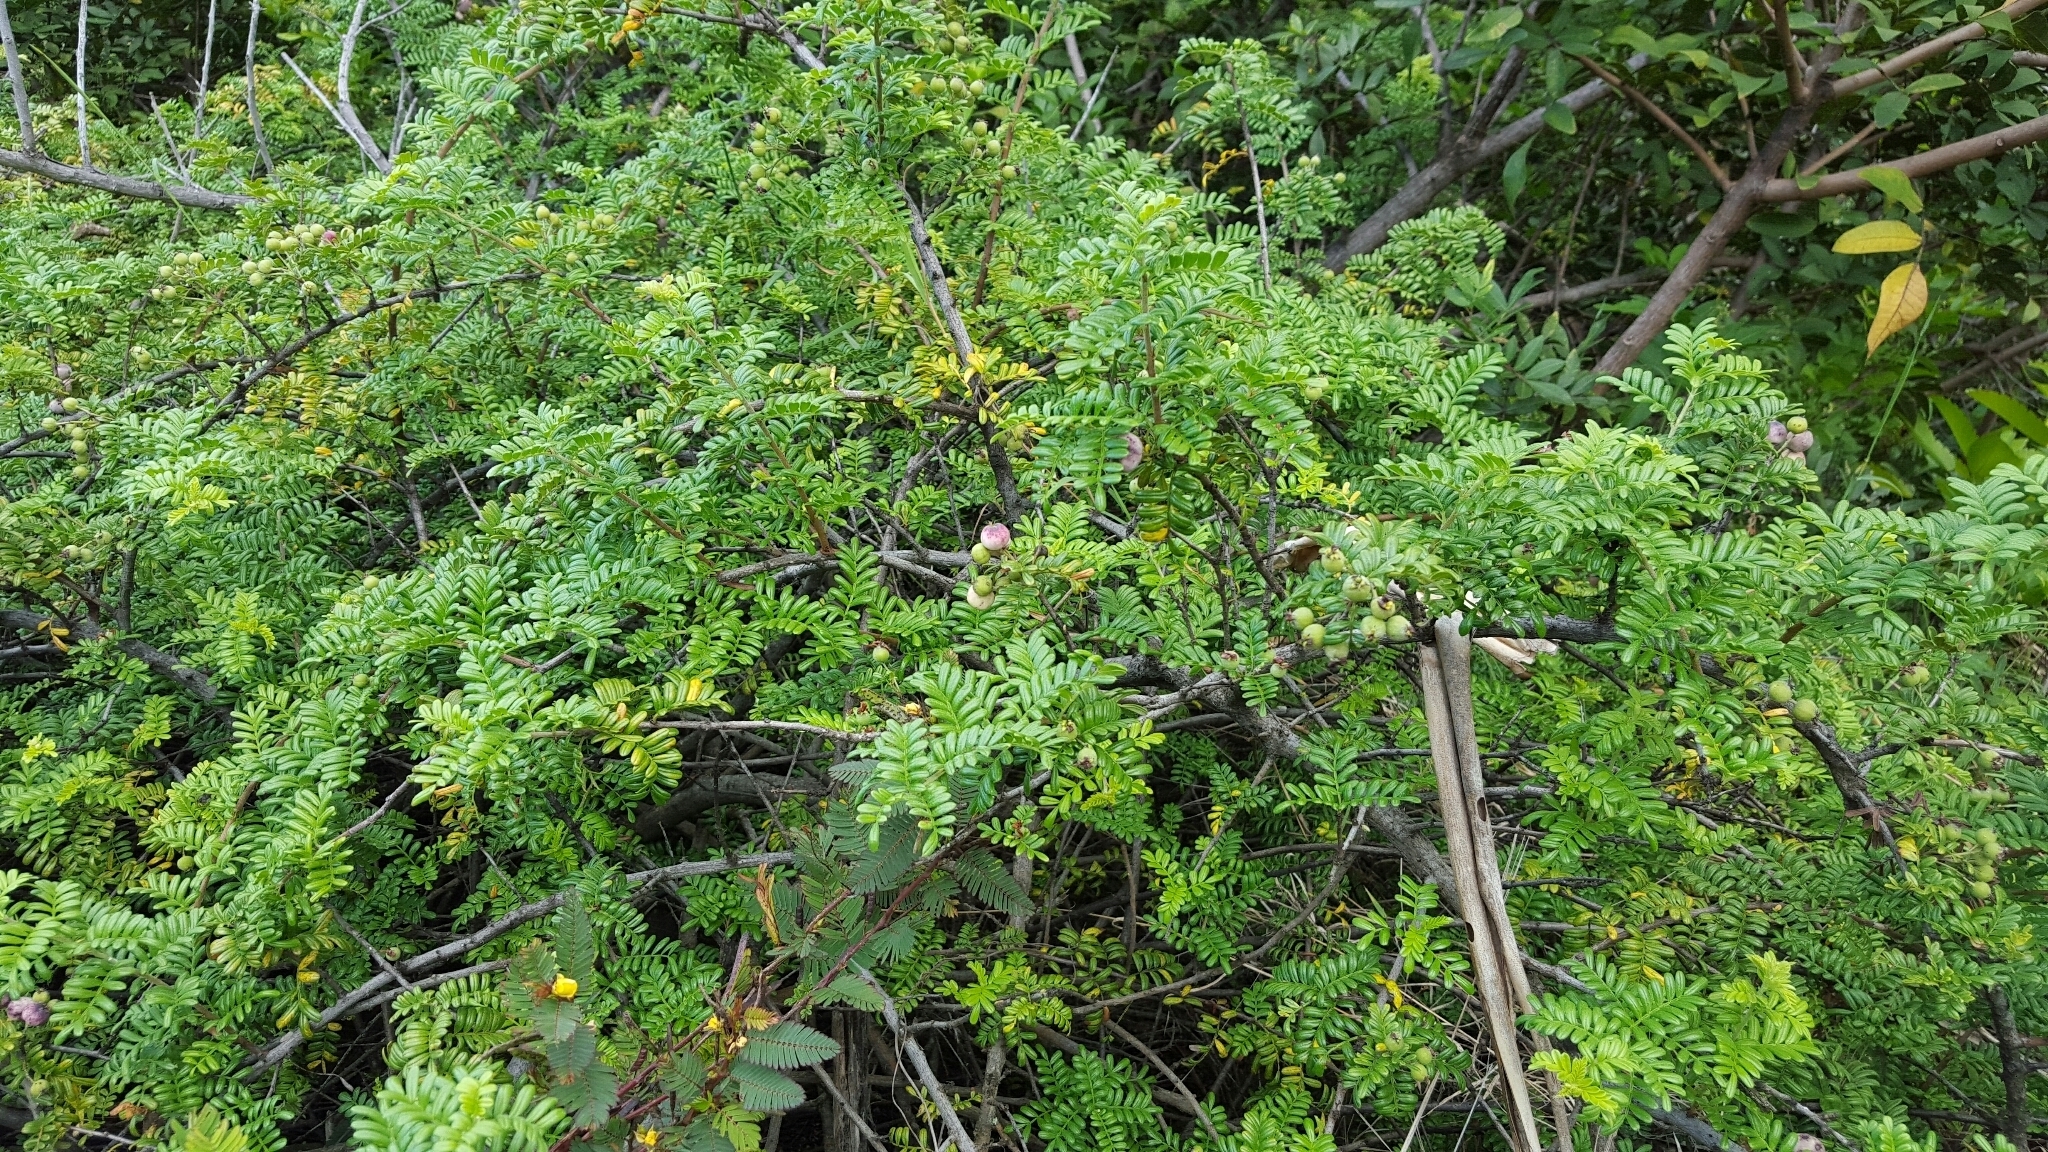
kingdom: Plantae
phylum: Tracheophyta
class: Magnoliopsida
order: Rosales
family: Rosaceae
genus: Osteomeles
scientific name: Osteomeles anthyllidifolia
